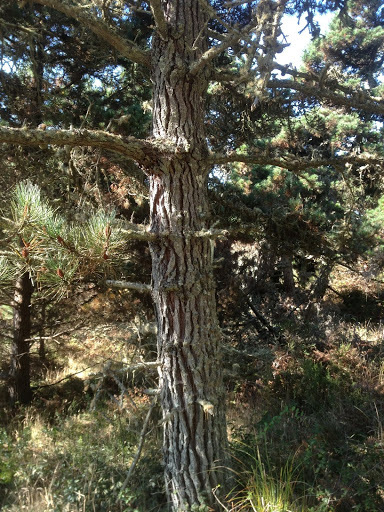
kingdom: Plantae
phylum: Tracheophyta
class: Pinopsida
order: Pinales
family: Pinaceae
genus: Pinus
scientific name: Pinus muricata
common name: Bishop pine
